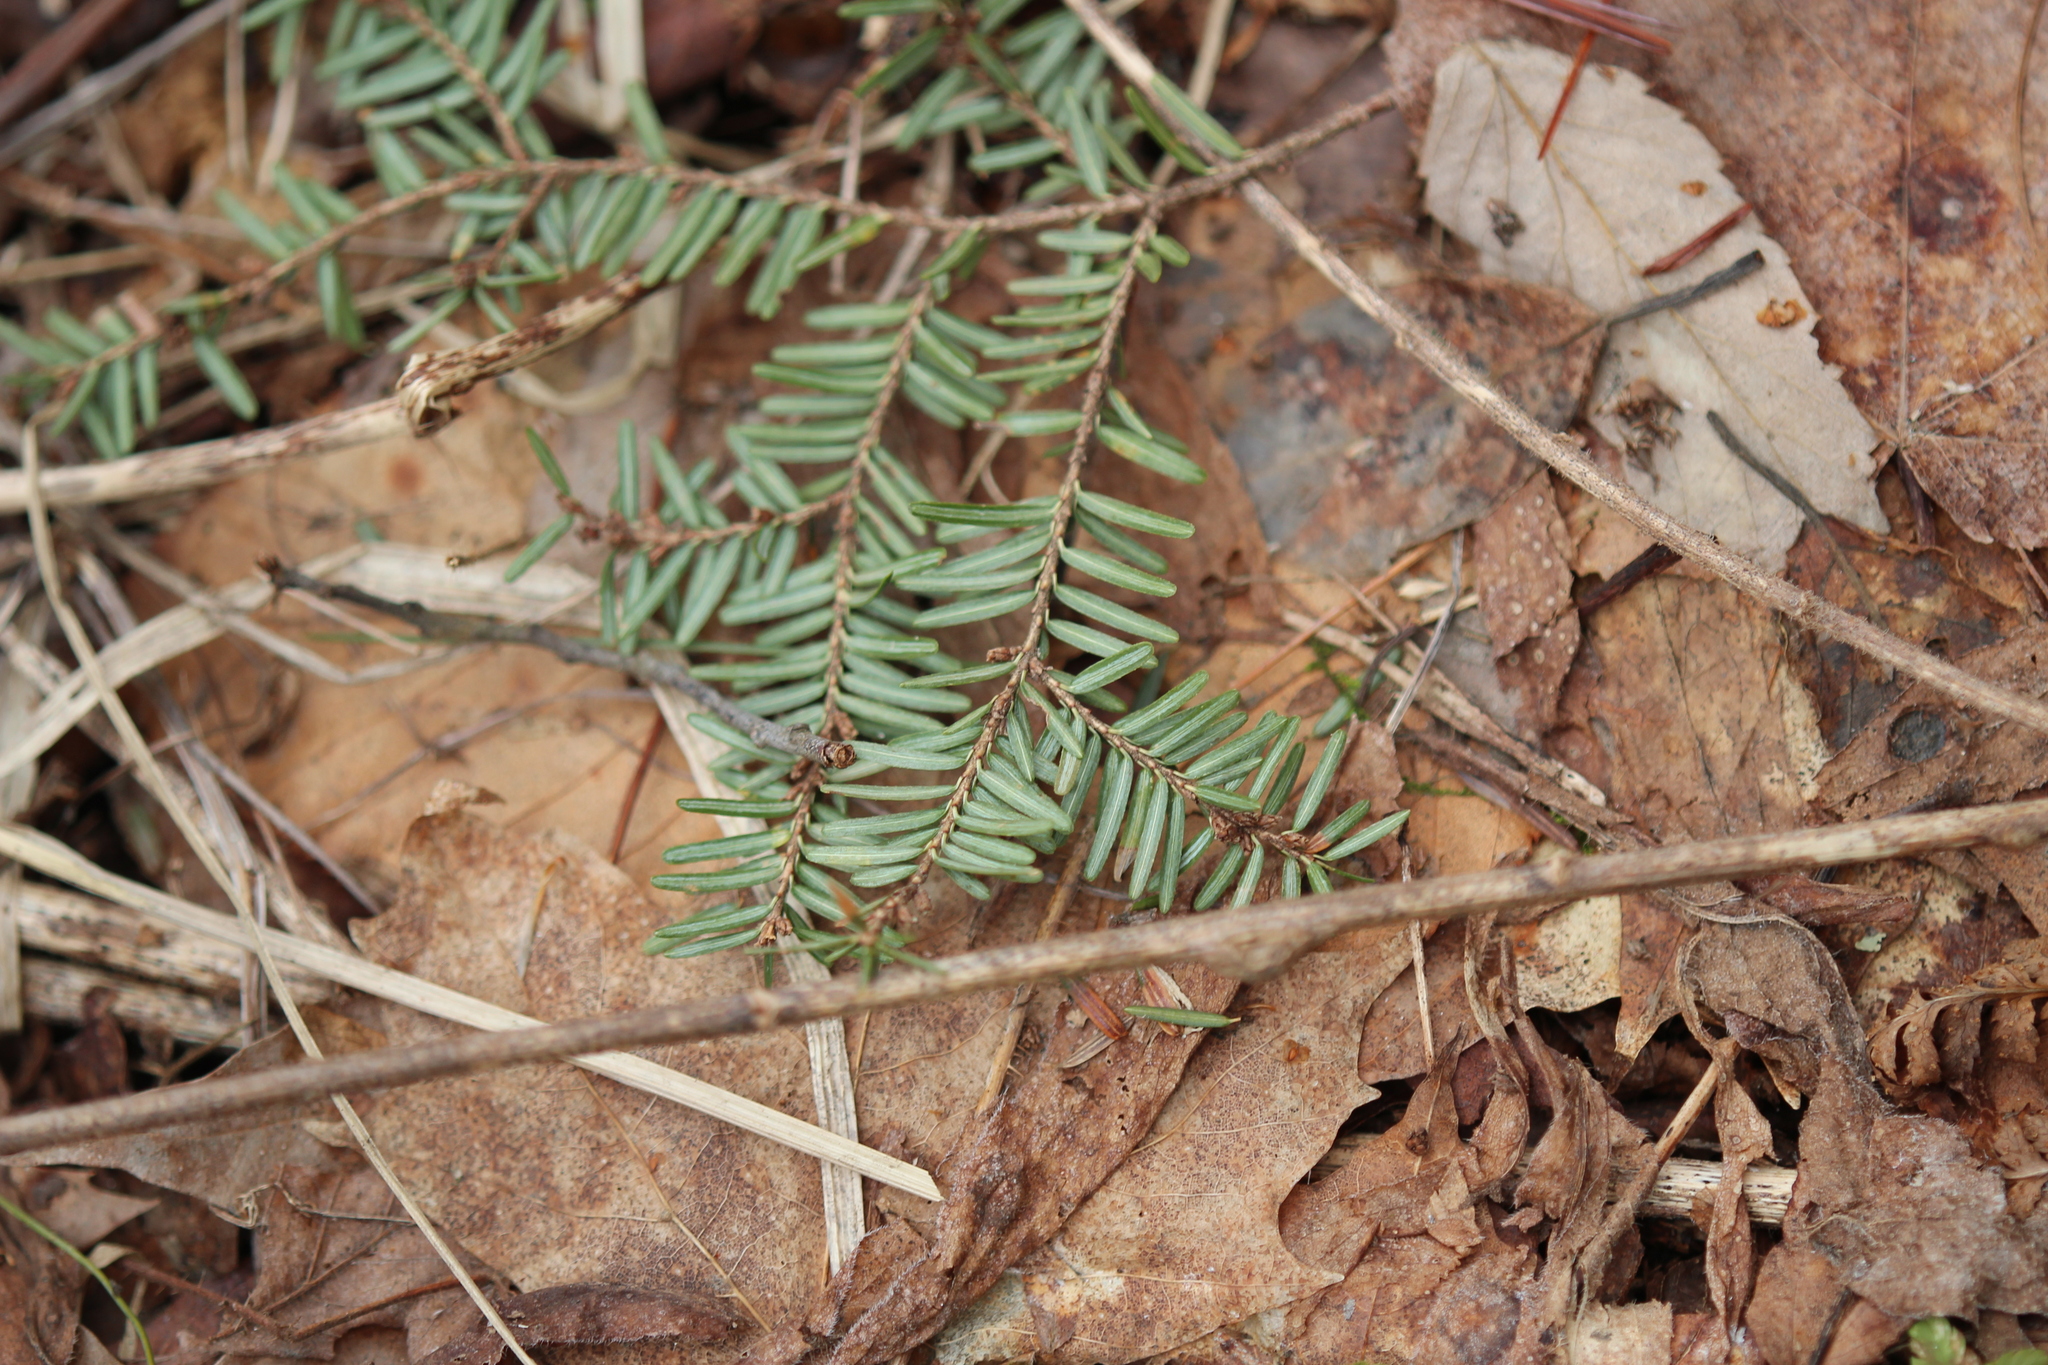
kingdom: Plantae
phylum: Tracheophyta
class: Pinopsida
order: Pinales
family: Pinaceae
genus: Tsuga
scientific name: Tsuga canadensis
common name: Eastern hemlock
